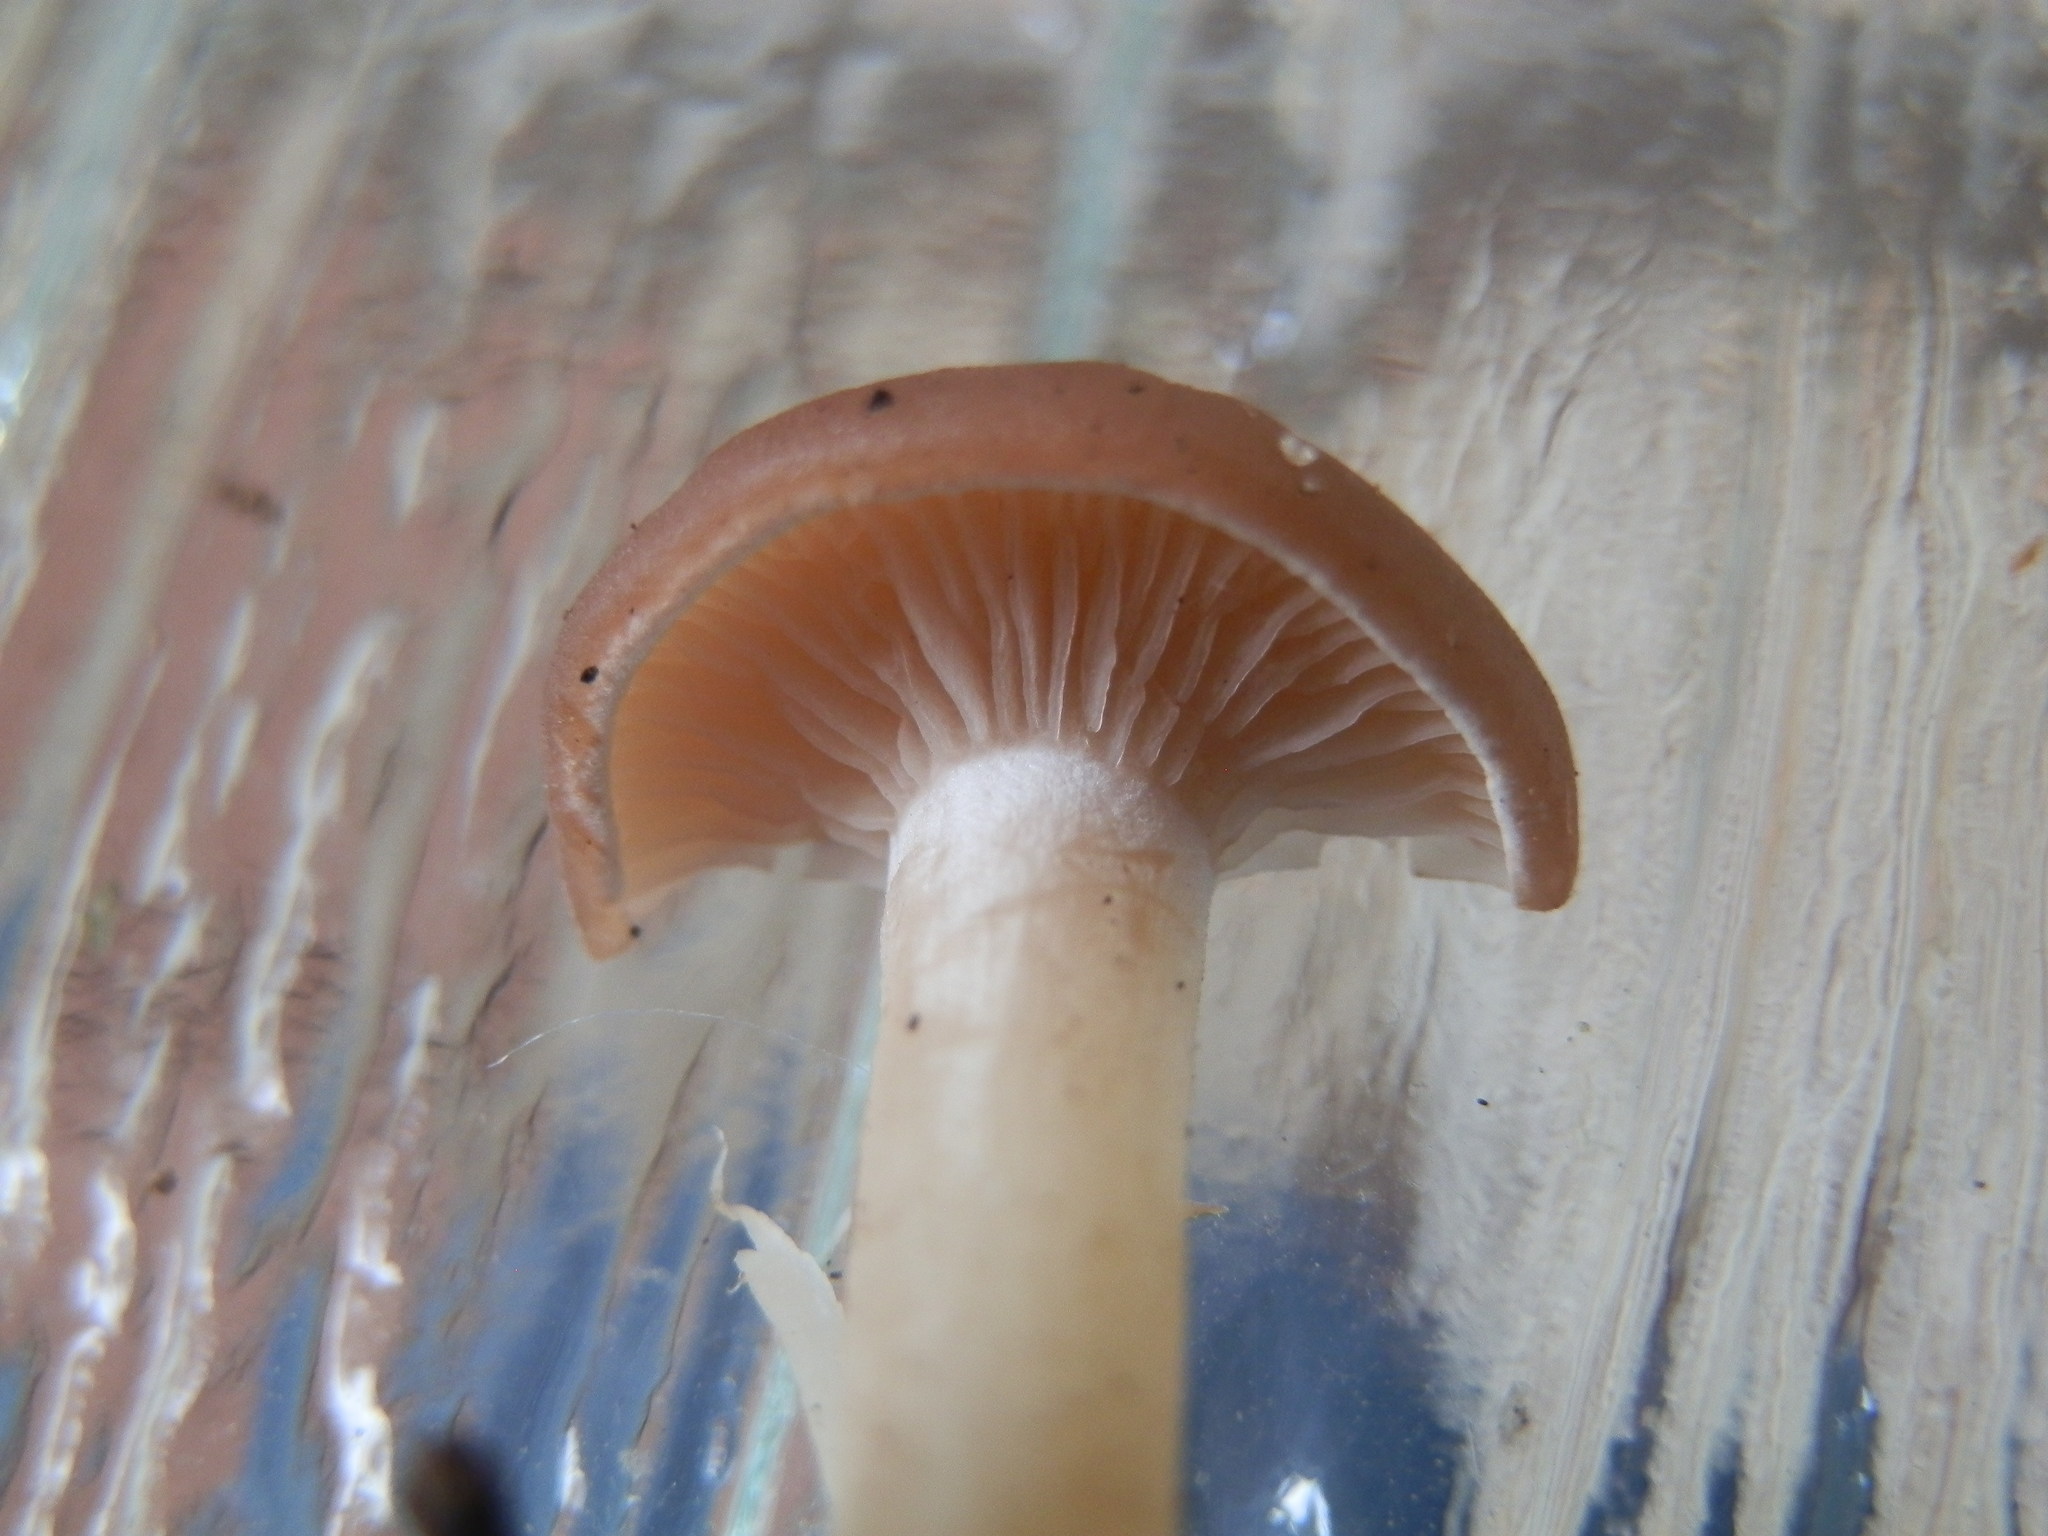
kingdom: Fungi
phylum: Basidiomycota
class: Agaricomycetes
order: Agaricales
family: Tricholomataceae
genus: Clitocybe
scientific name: Clitocybe diatreta
